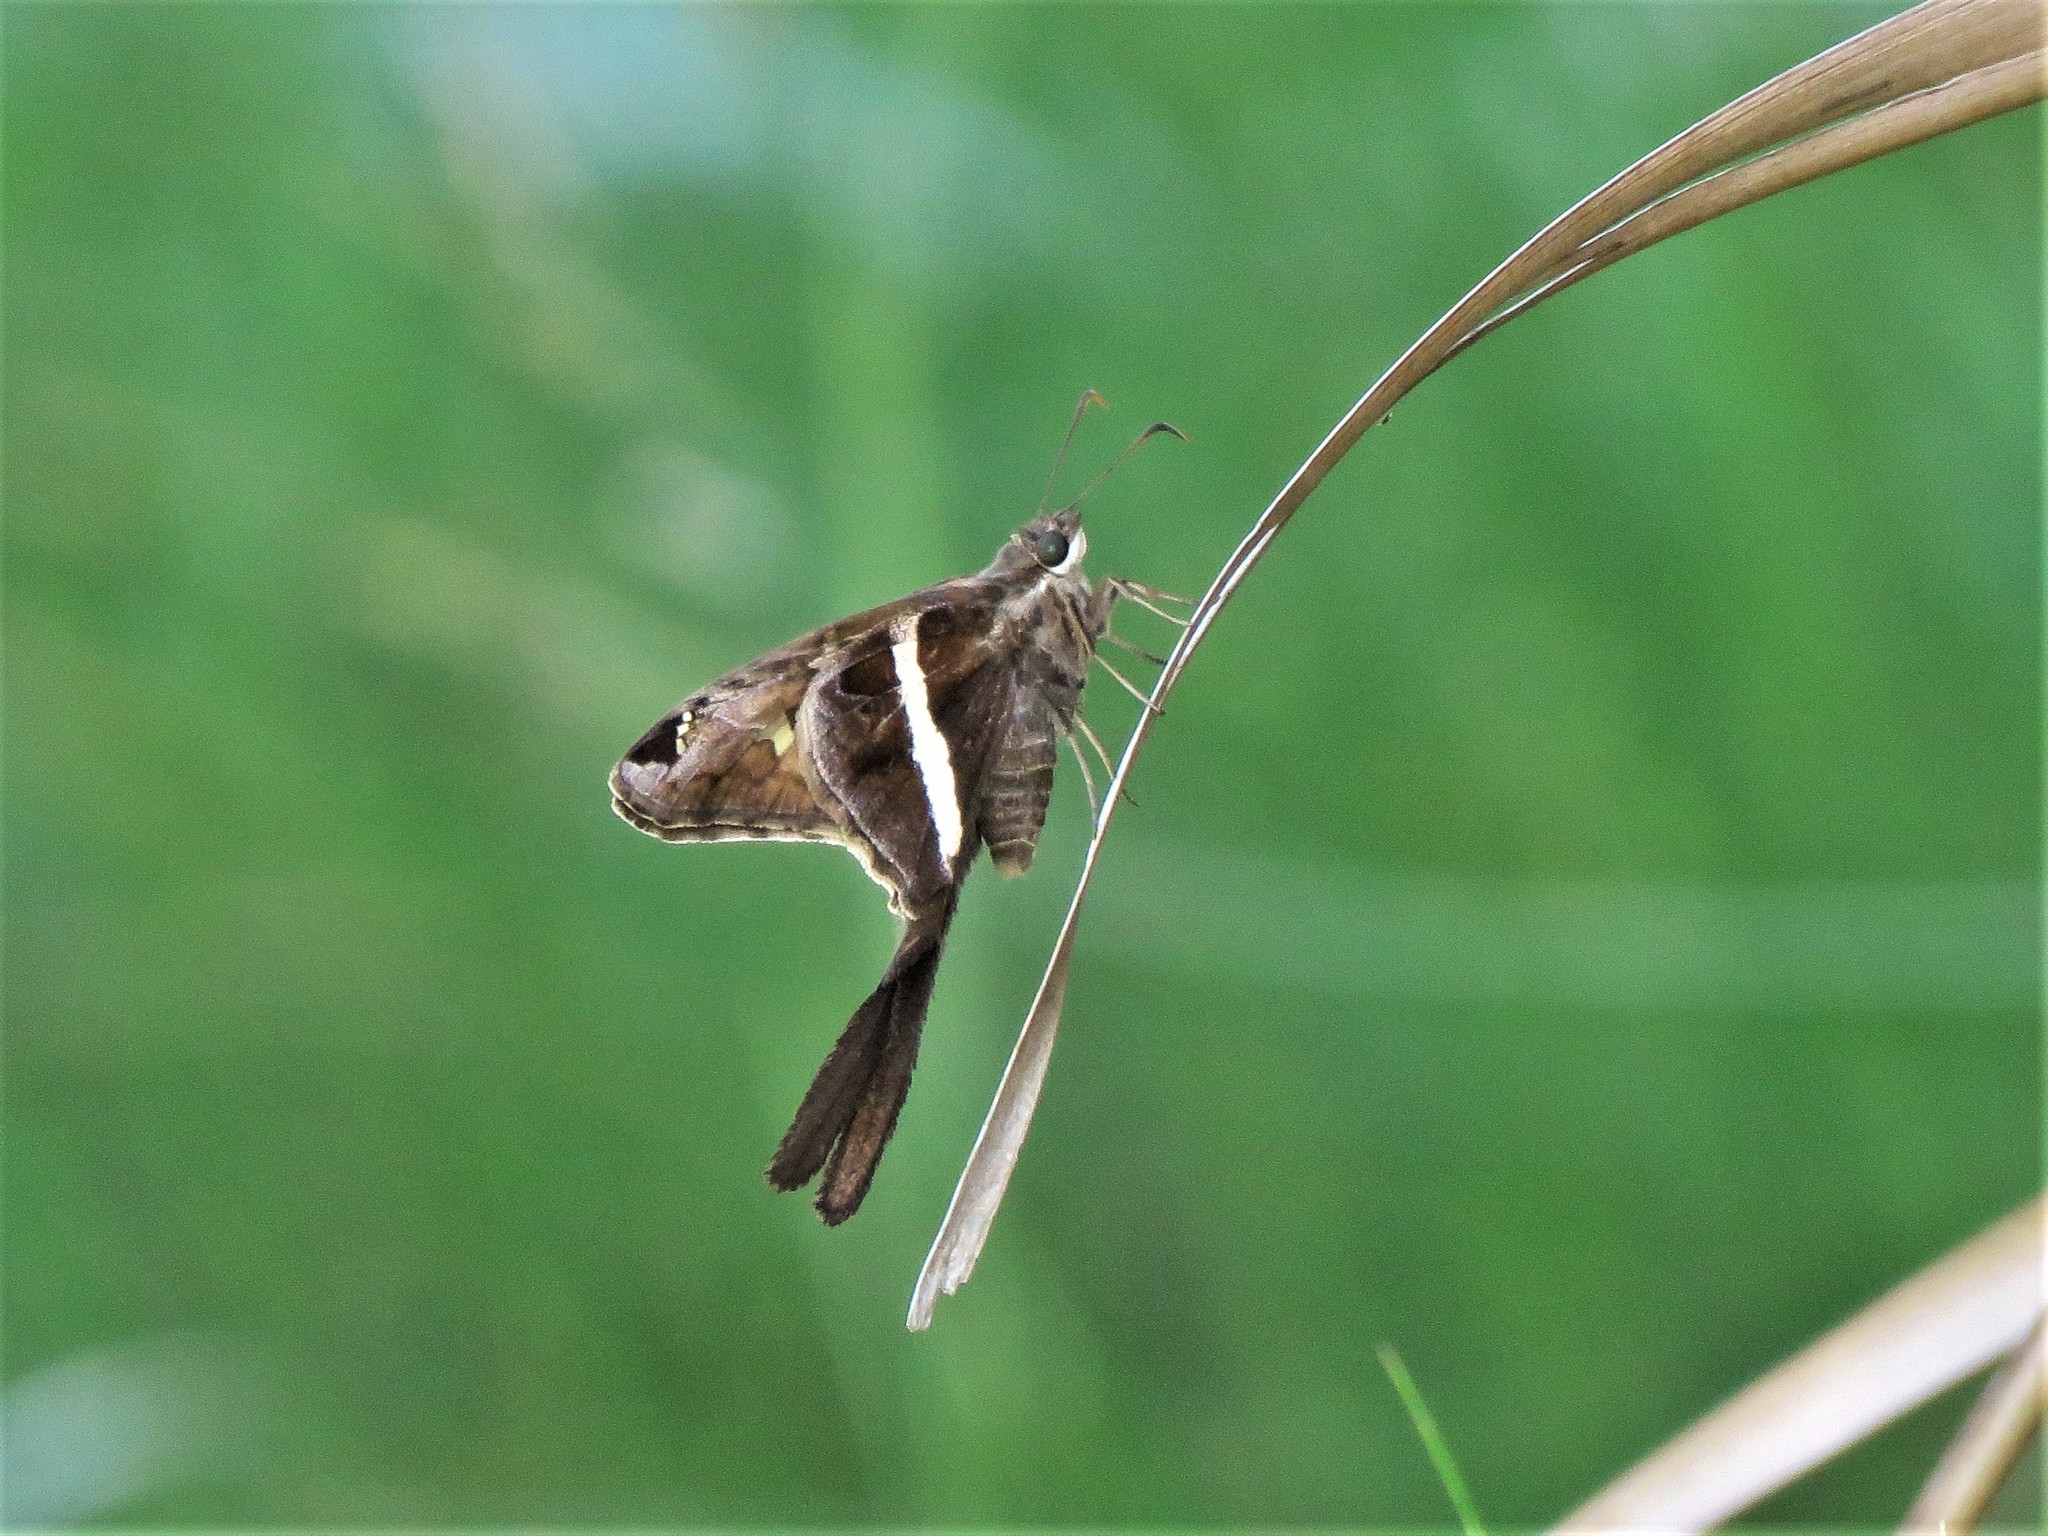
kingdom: Animalia
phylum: Arthropoda
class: Insecta
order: Lepidoptera
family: Hesperiidae
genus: Chioides
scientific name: Chioides catillus
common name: Silverbanded skipper
